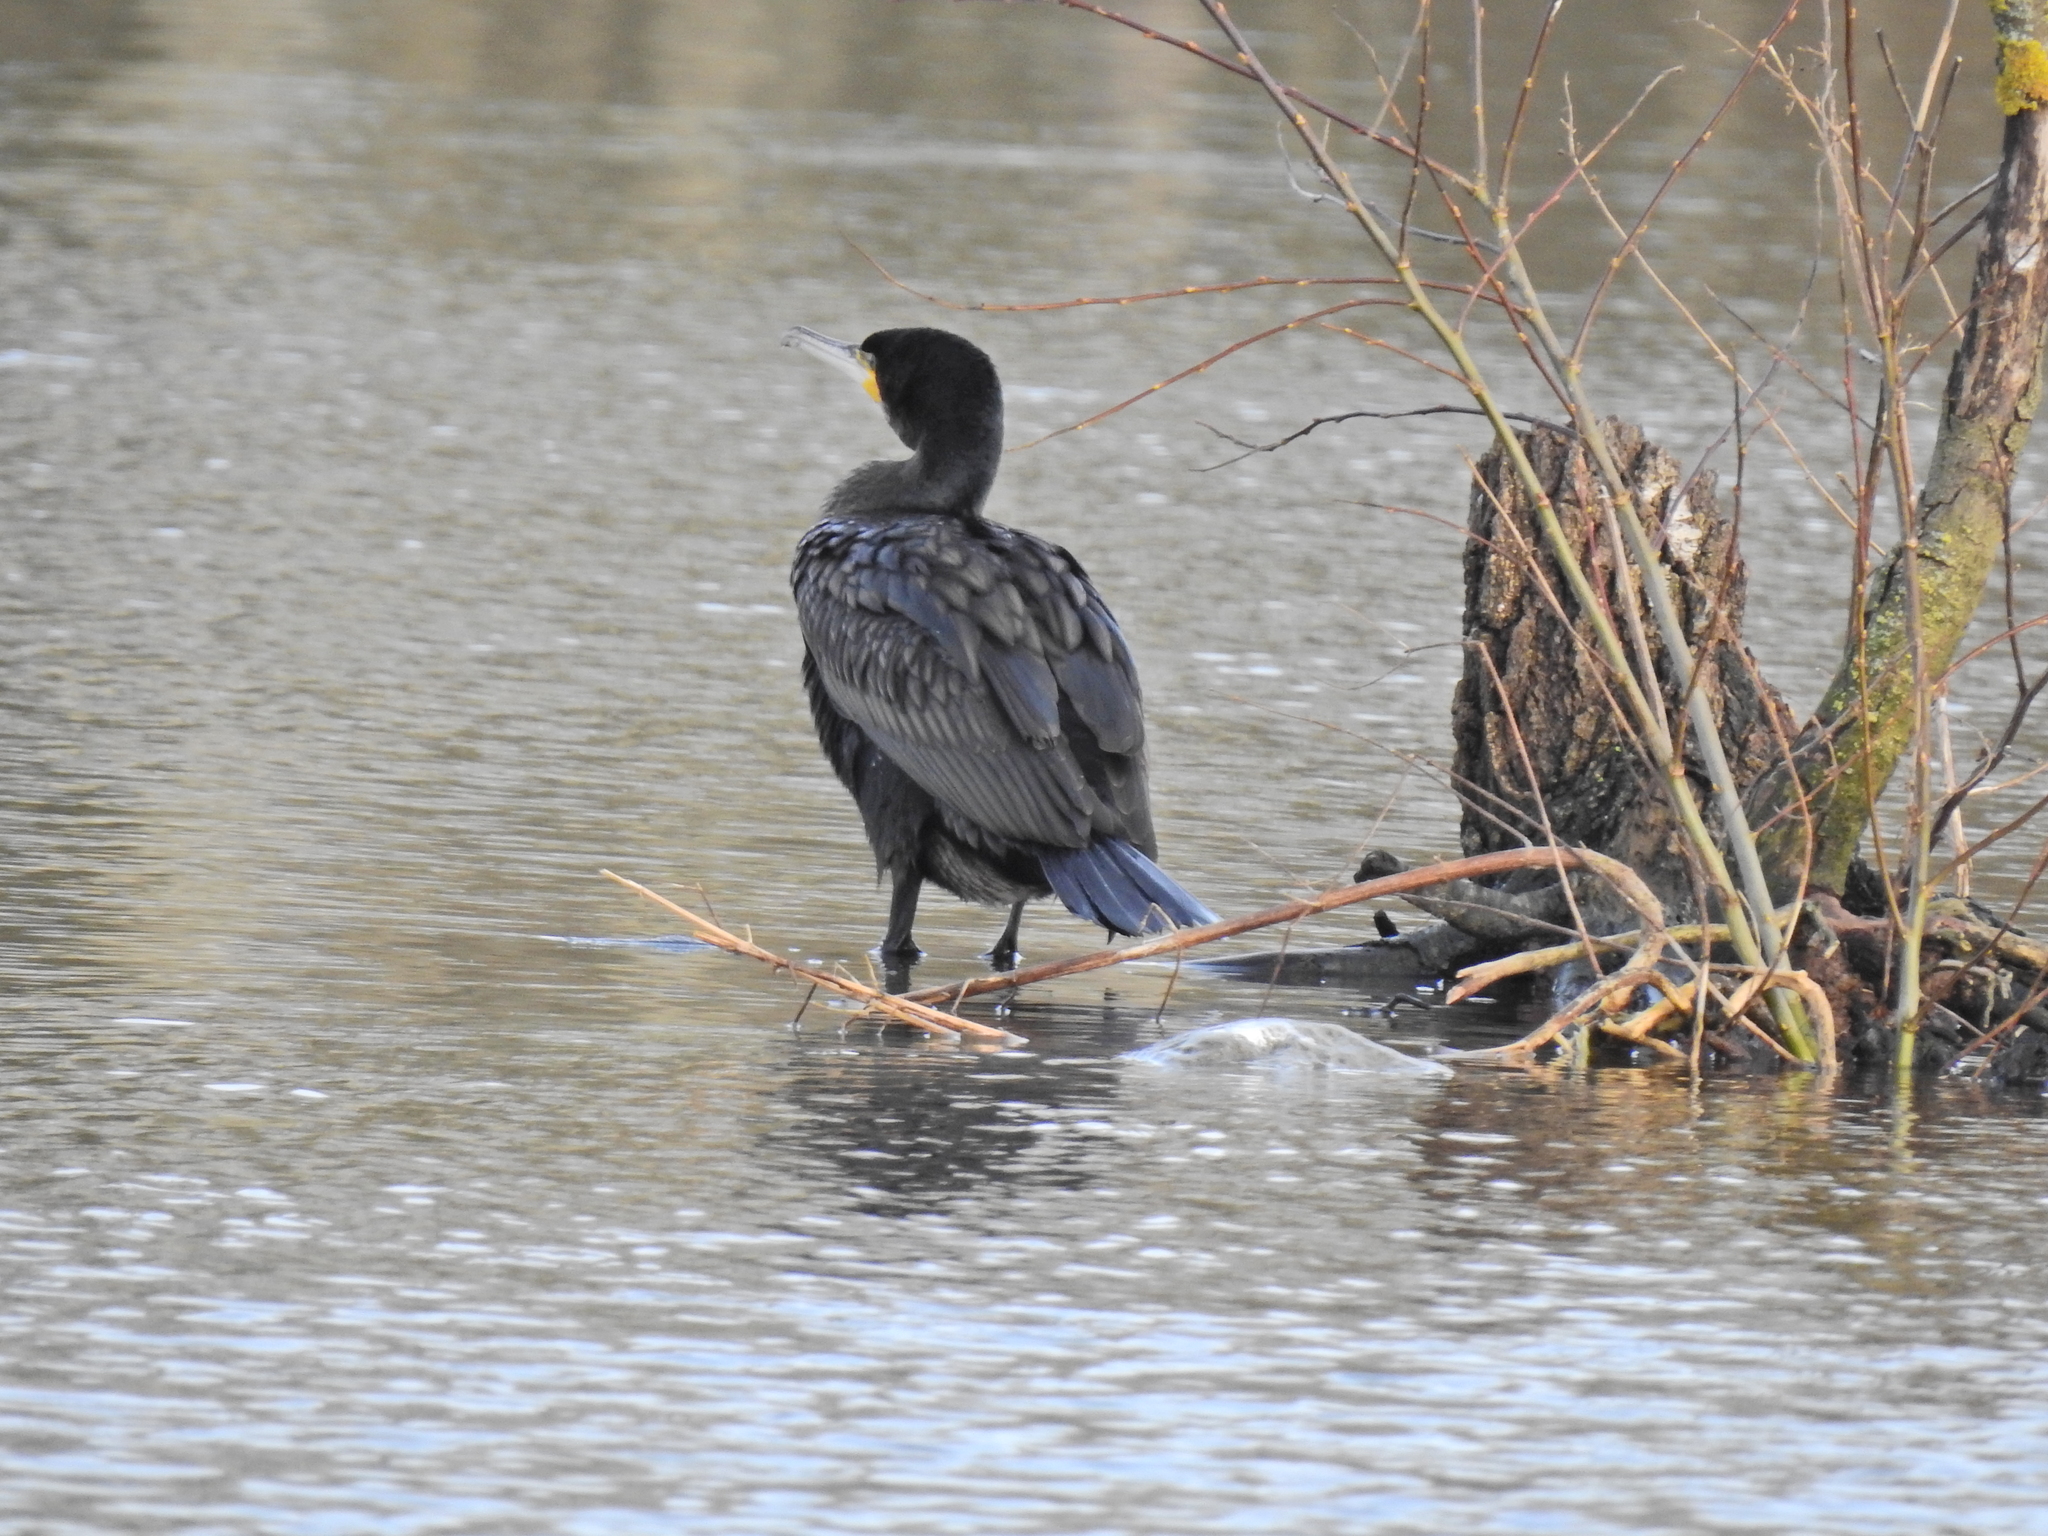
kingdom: Animalia
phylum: Chordata
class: Aves
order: Suliformes
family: Phalacrocoracidae
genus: Phalacrocorax
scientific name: Phalacrocorax carbo
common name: Great cormorant
